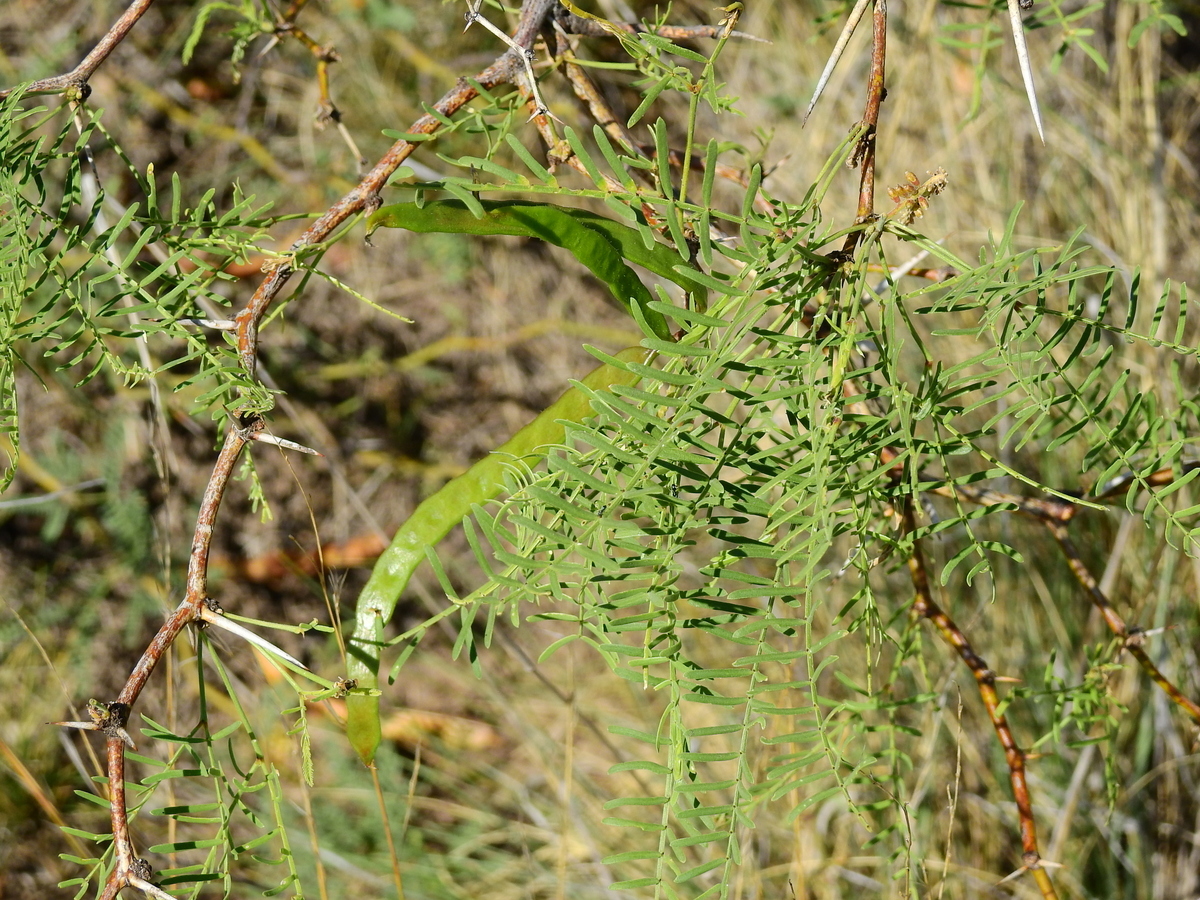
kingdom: Plantae
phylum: Tracheophyta
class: Magnoliopsida
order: Fabales
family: Fabaceae
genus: Prosopis
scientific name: Prosopis flexuosa
